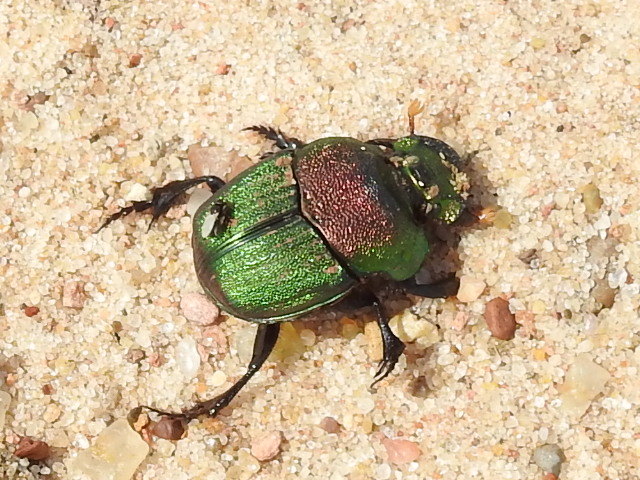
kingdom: Animalia
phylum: Arthropoda
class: Insecta
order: Coleoptera
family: Scarabaeidae
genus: Phanaeus
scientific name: Phanaeus difformis
